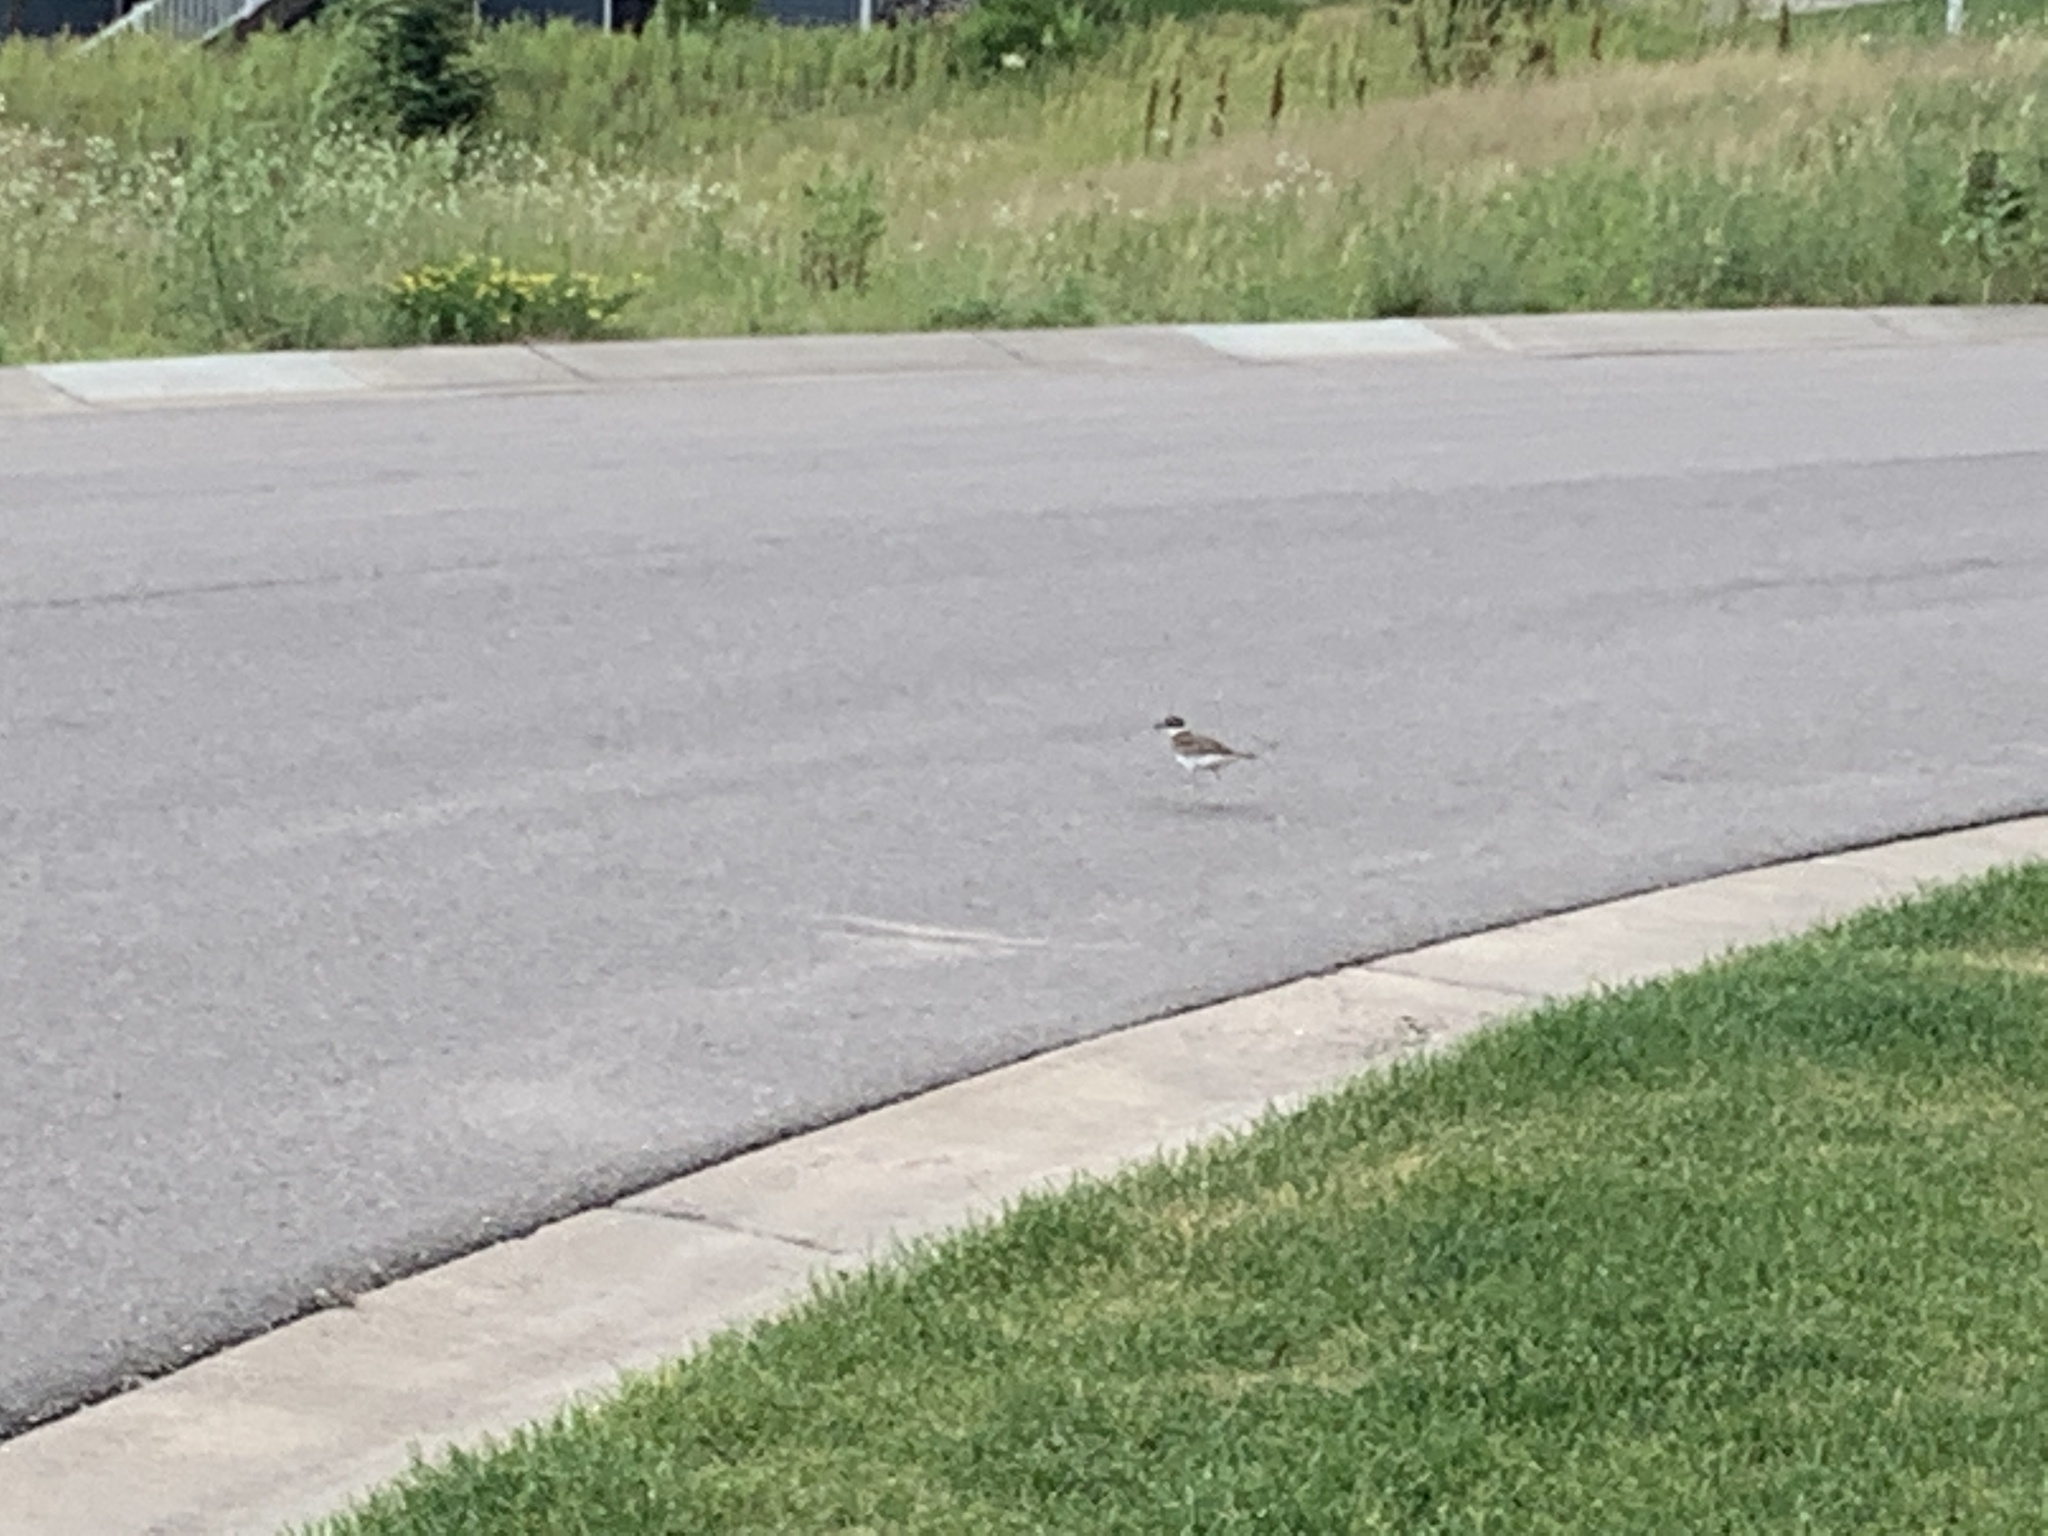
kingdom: Animalia
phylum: Chordata
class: Aves
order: Charadriiformes
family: Charadriidae
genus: Charadrius
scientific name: Charadrius vociferus
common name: Killdeer
